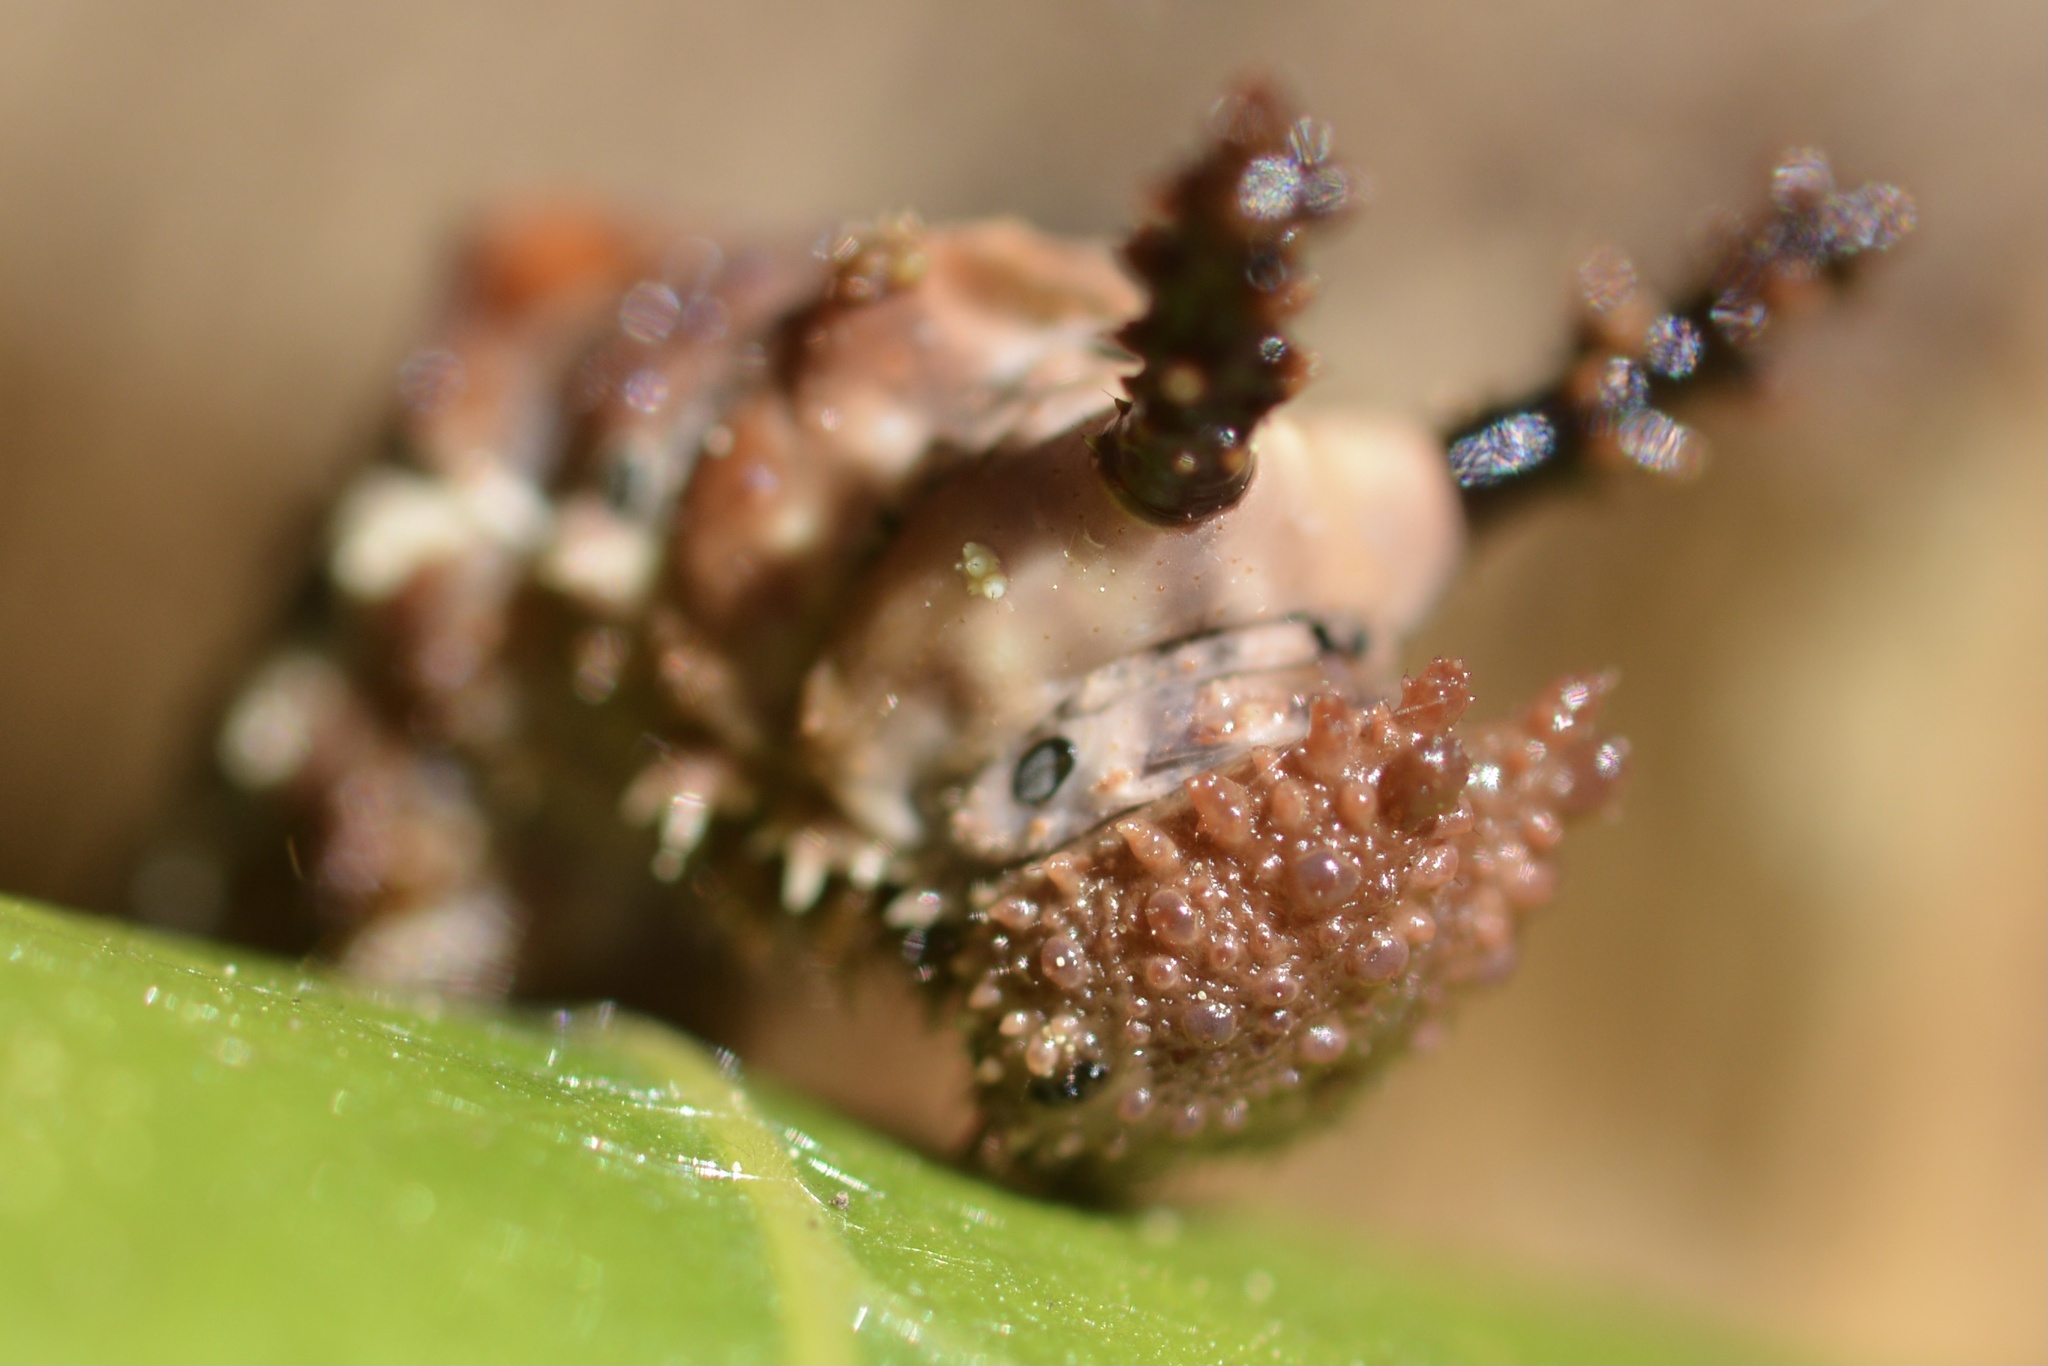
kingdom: Animalia
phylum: Arthropoda
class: Insecta
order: Lepidoptera
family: Nymphalidae
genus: Limenitis
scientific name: Limenitis lorquini
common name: Lorquin's admiral
